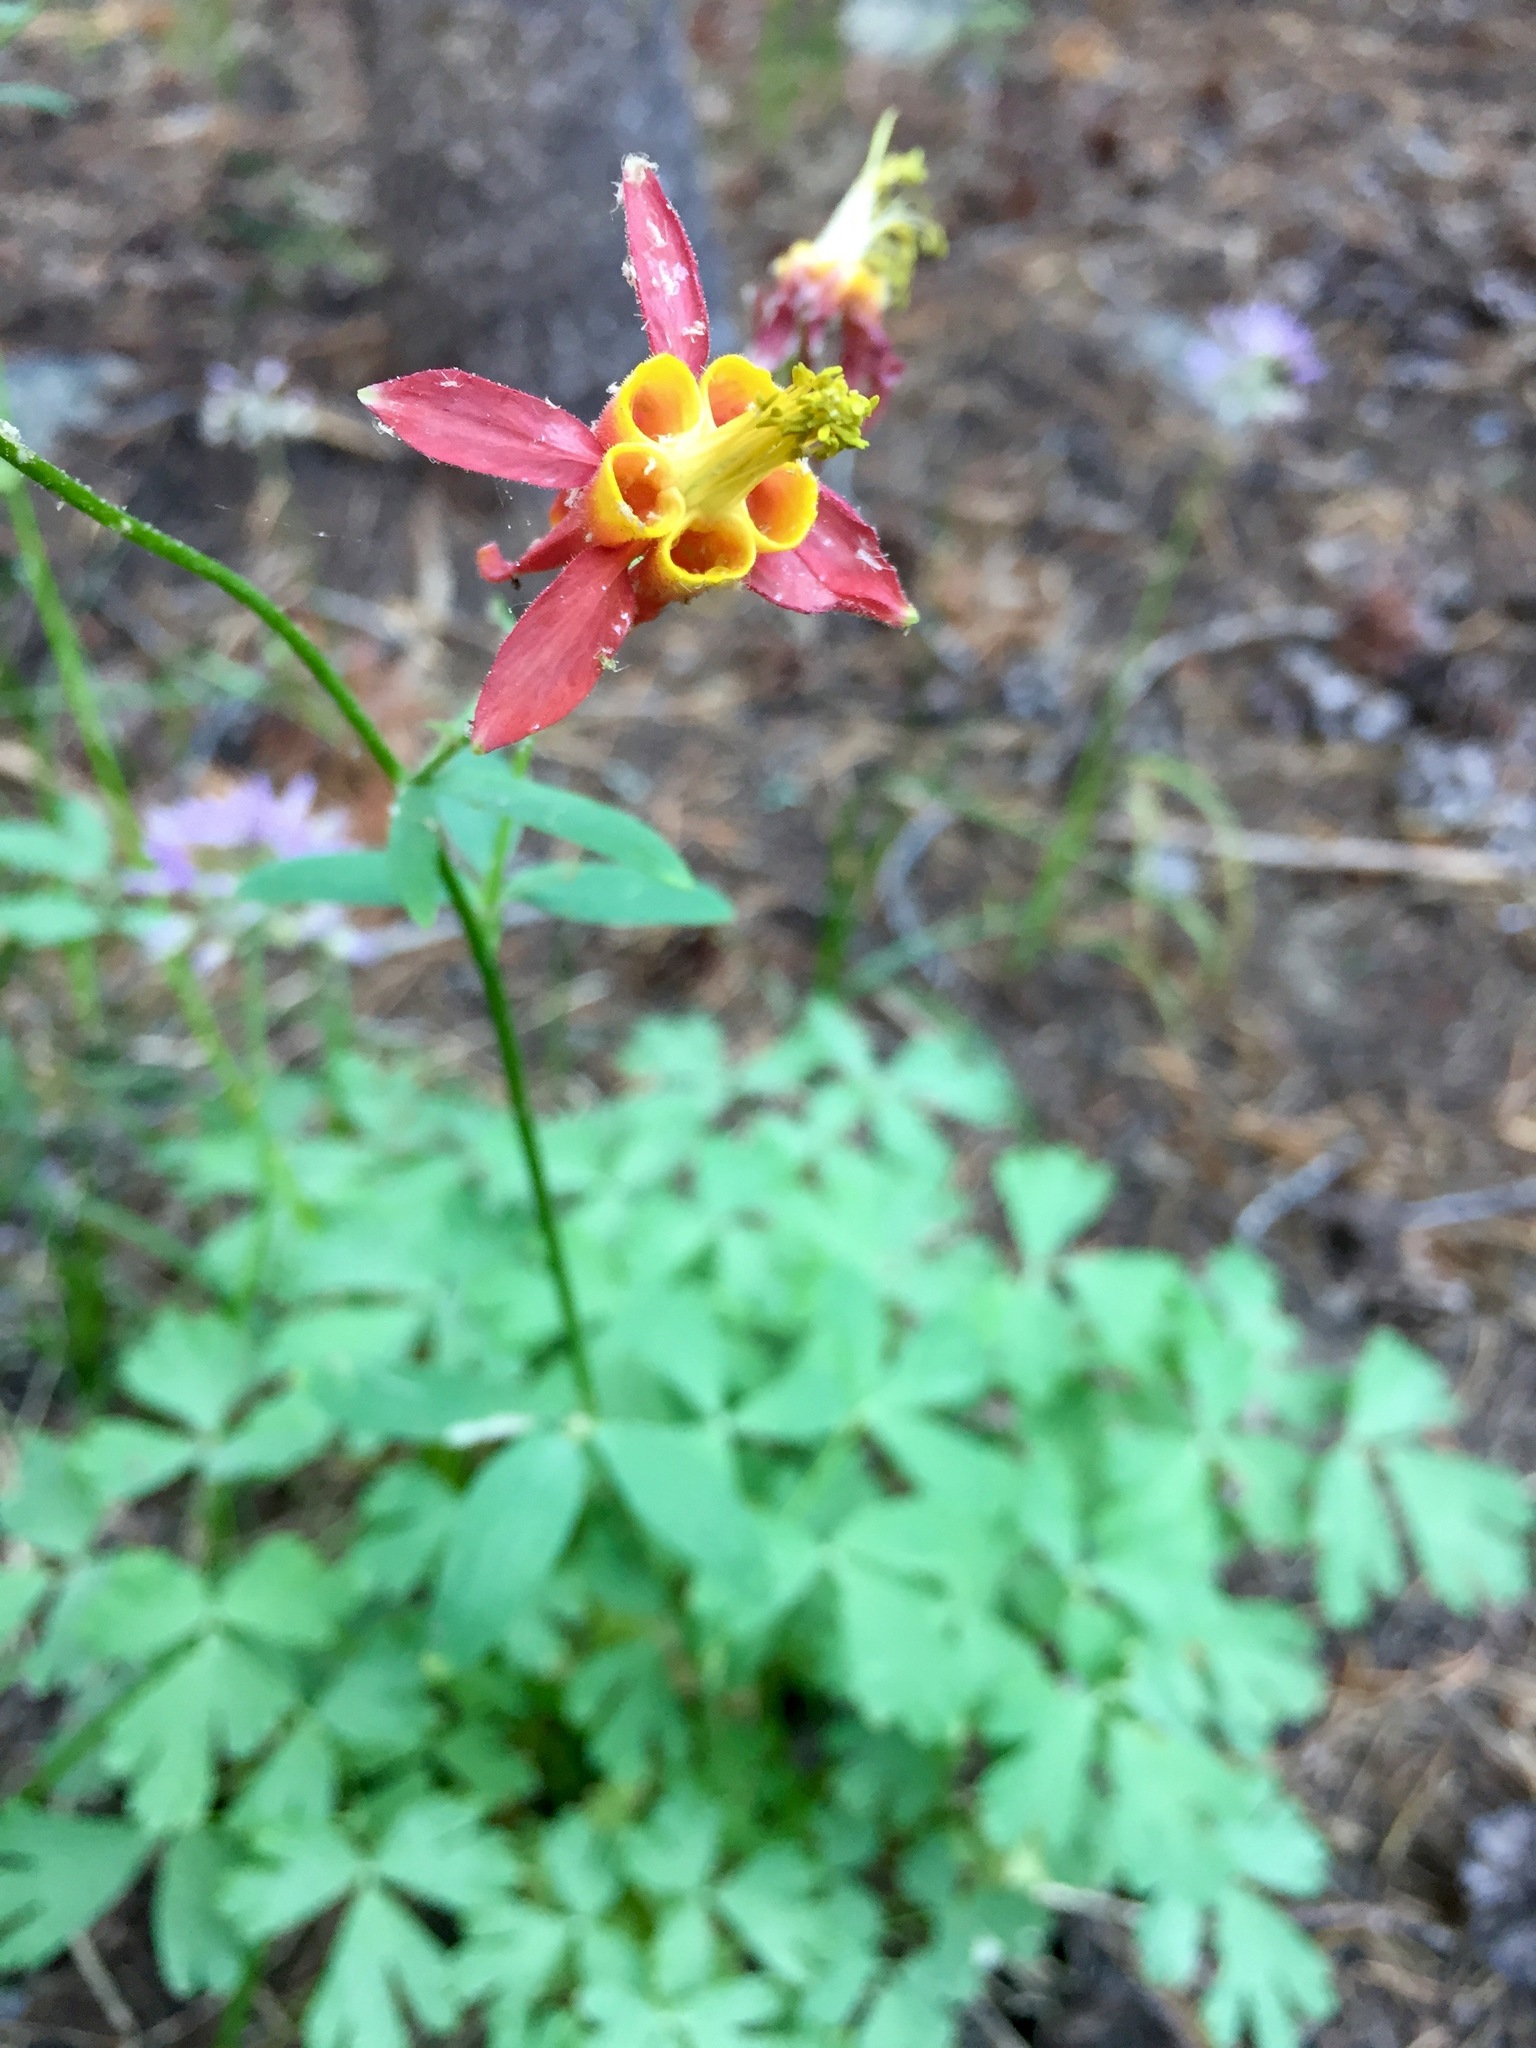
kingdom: Plantae
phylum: Tracheophyta
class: Magnoliopsida
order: Ranunculales
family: Ranunculaceae
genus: Aquilegia
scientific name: Aquilegia formosa
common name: Sitka columbine
